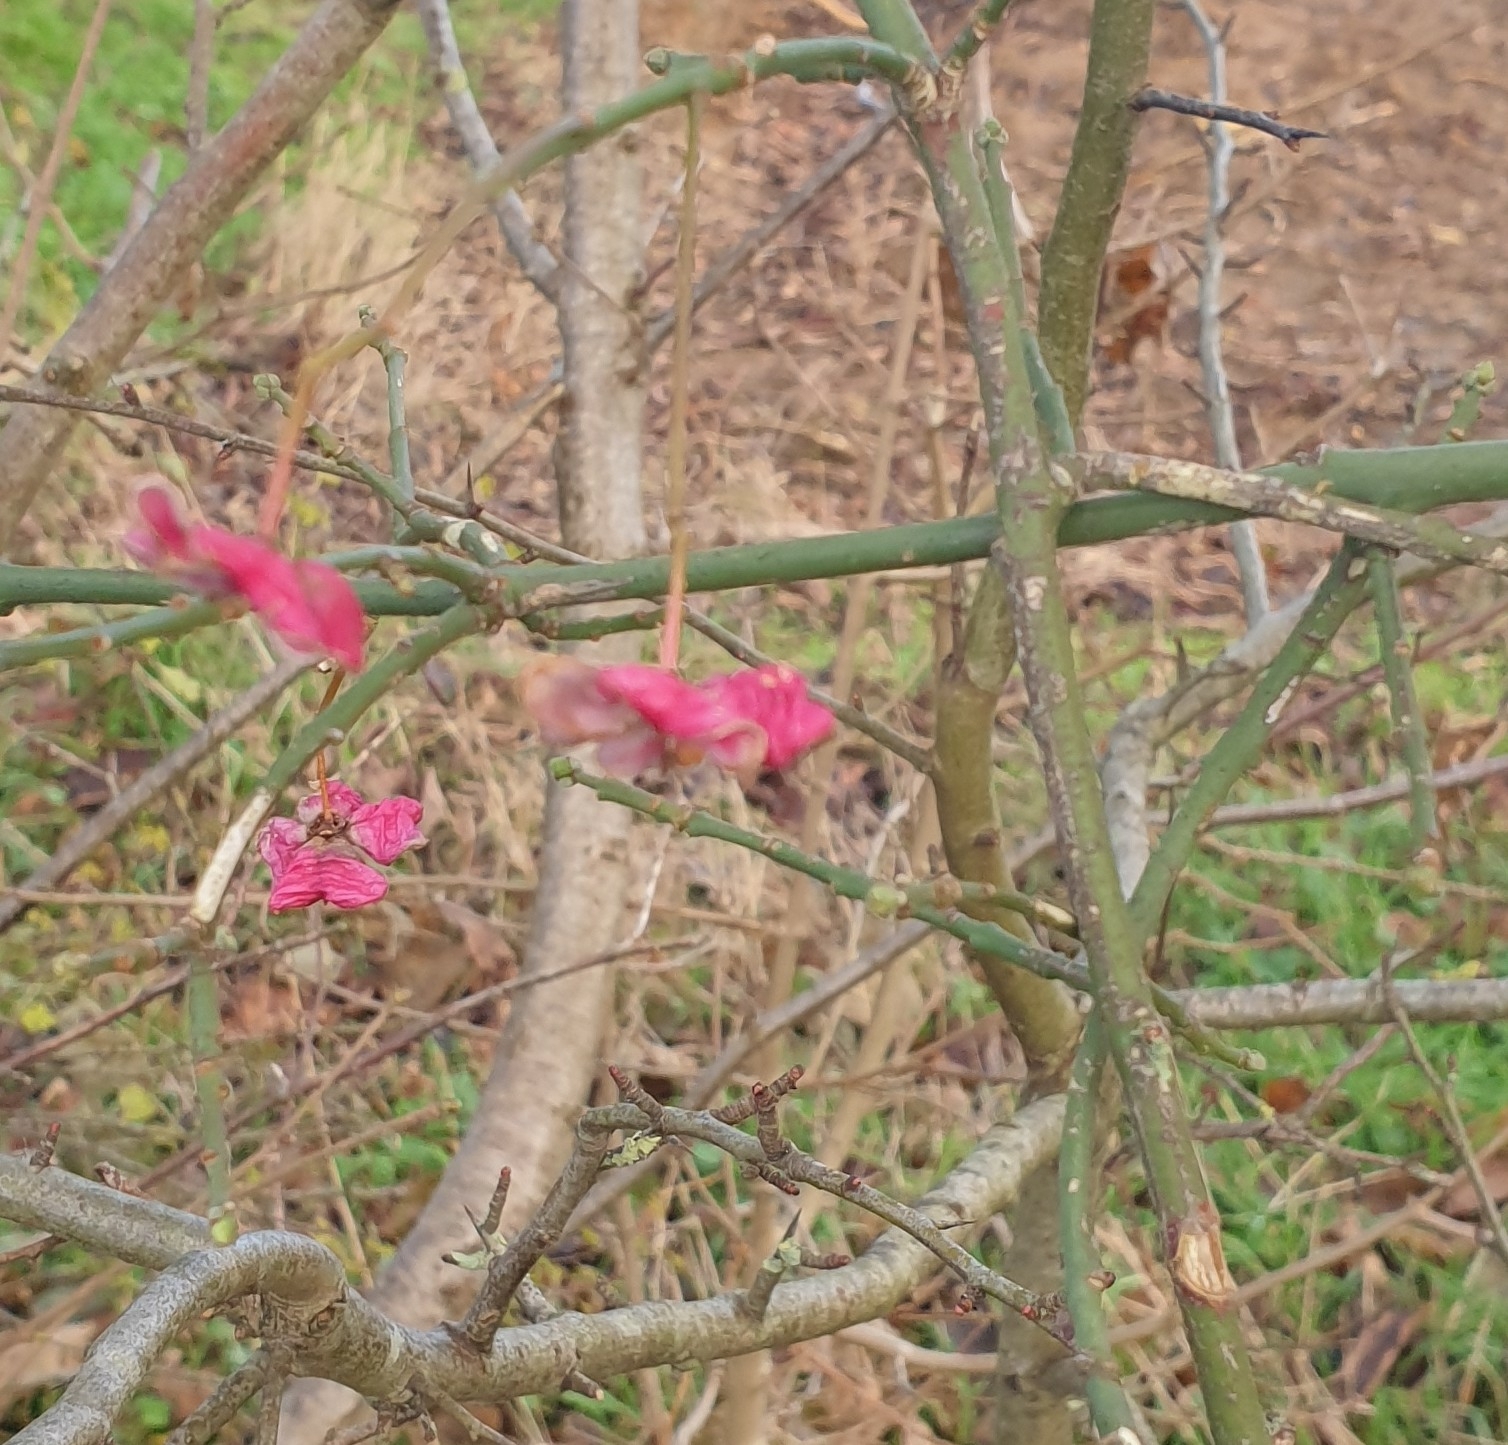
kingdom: Plantae
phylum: Tracheophyta
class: Magnoliopsida
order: Celastrales
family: Celastraceae
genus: Euonymus
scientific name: Euonymus europaeus
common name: Spindle
